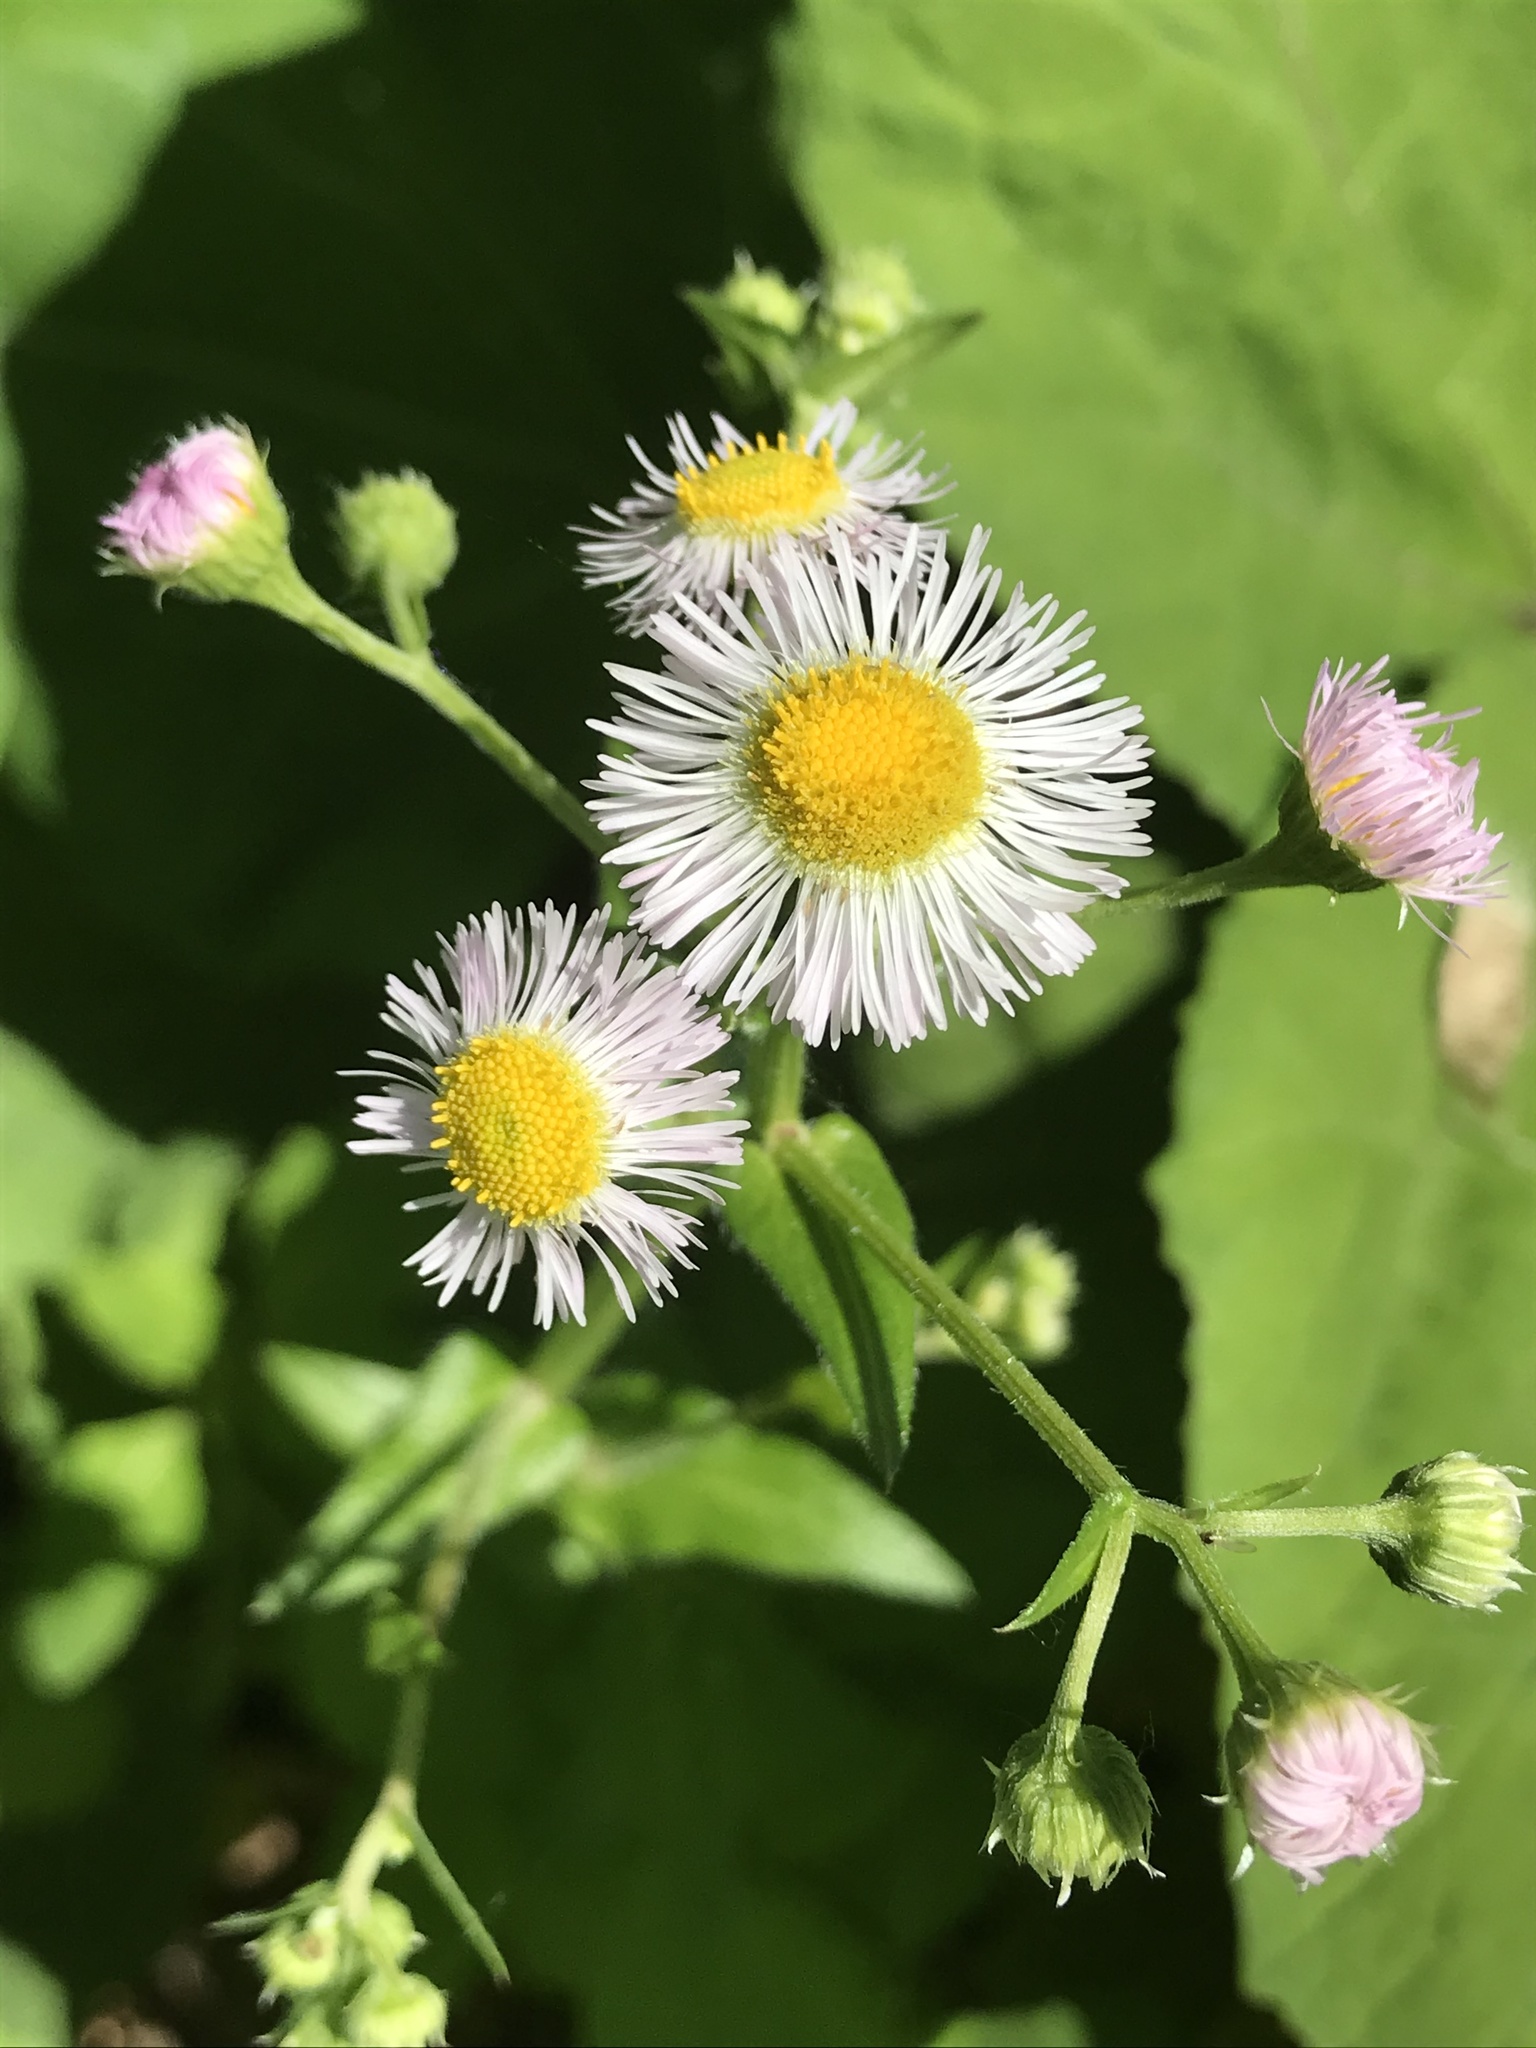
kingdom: Plantae
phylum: Tracheophyta
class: Magnoliopsida
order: Asterales
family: Asteraceae
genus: Erigeron
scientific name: Erigeron philadelphicus
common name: Robin's-plantain
